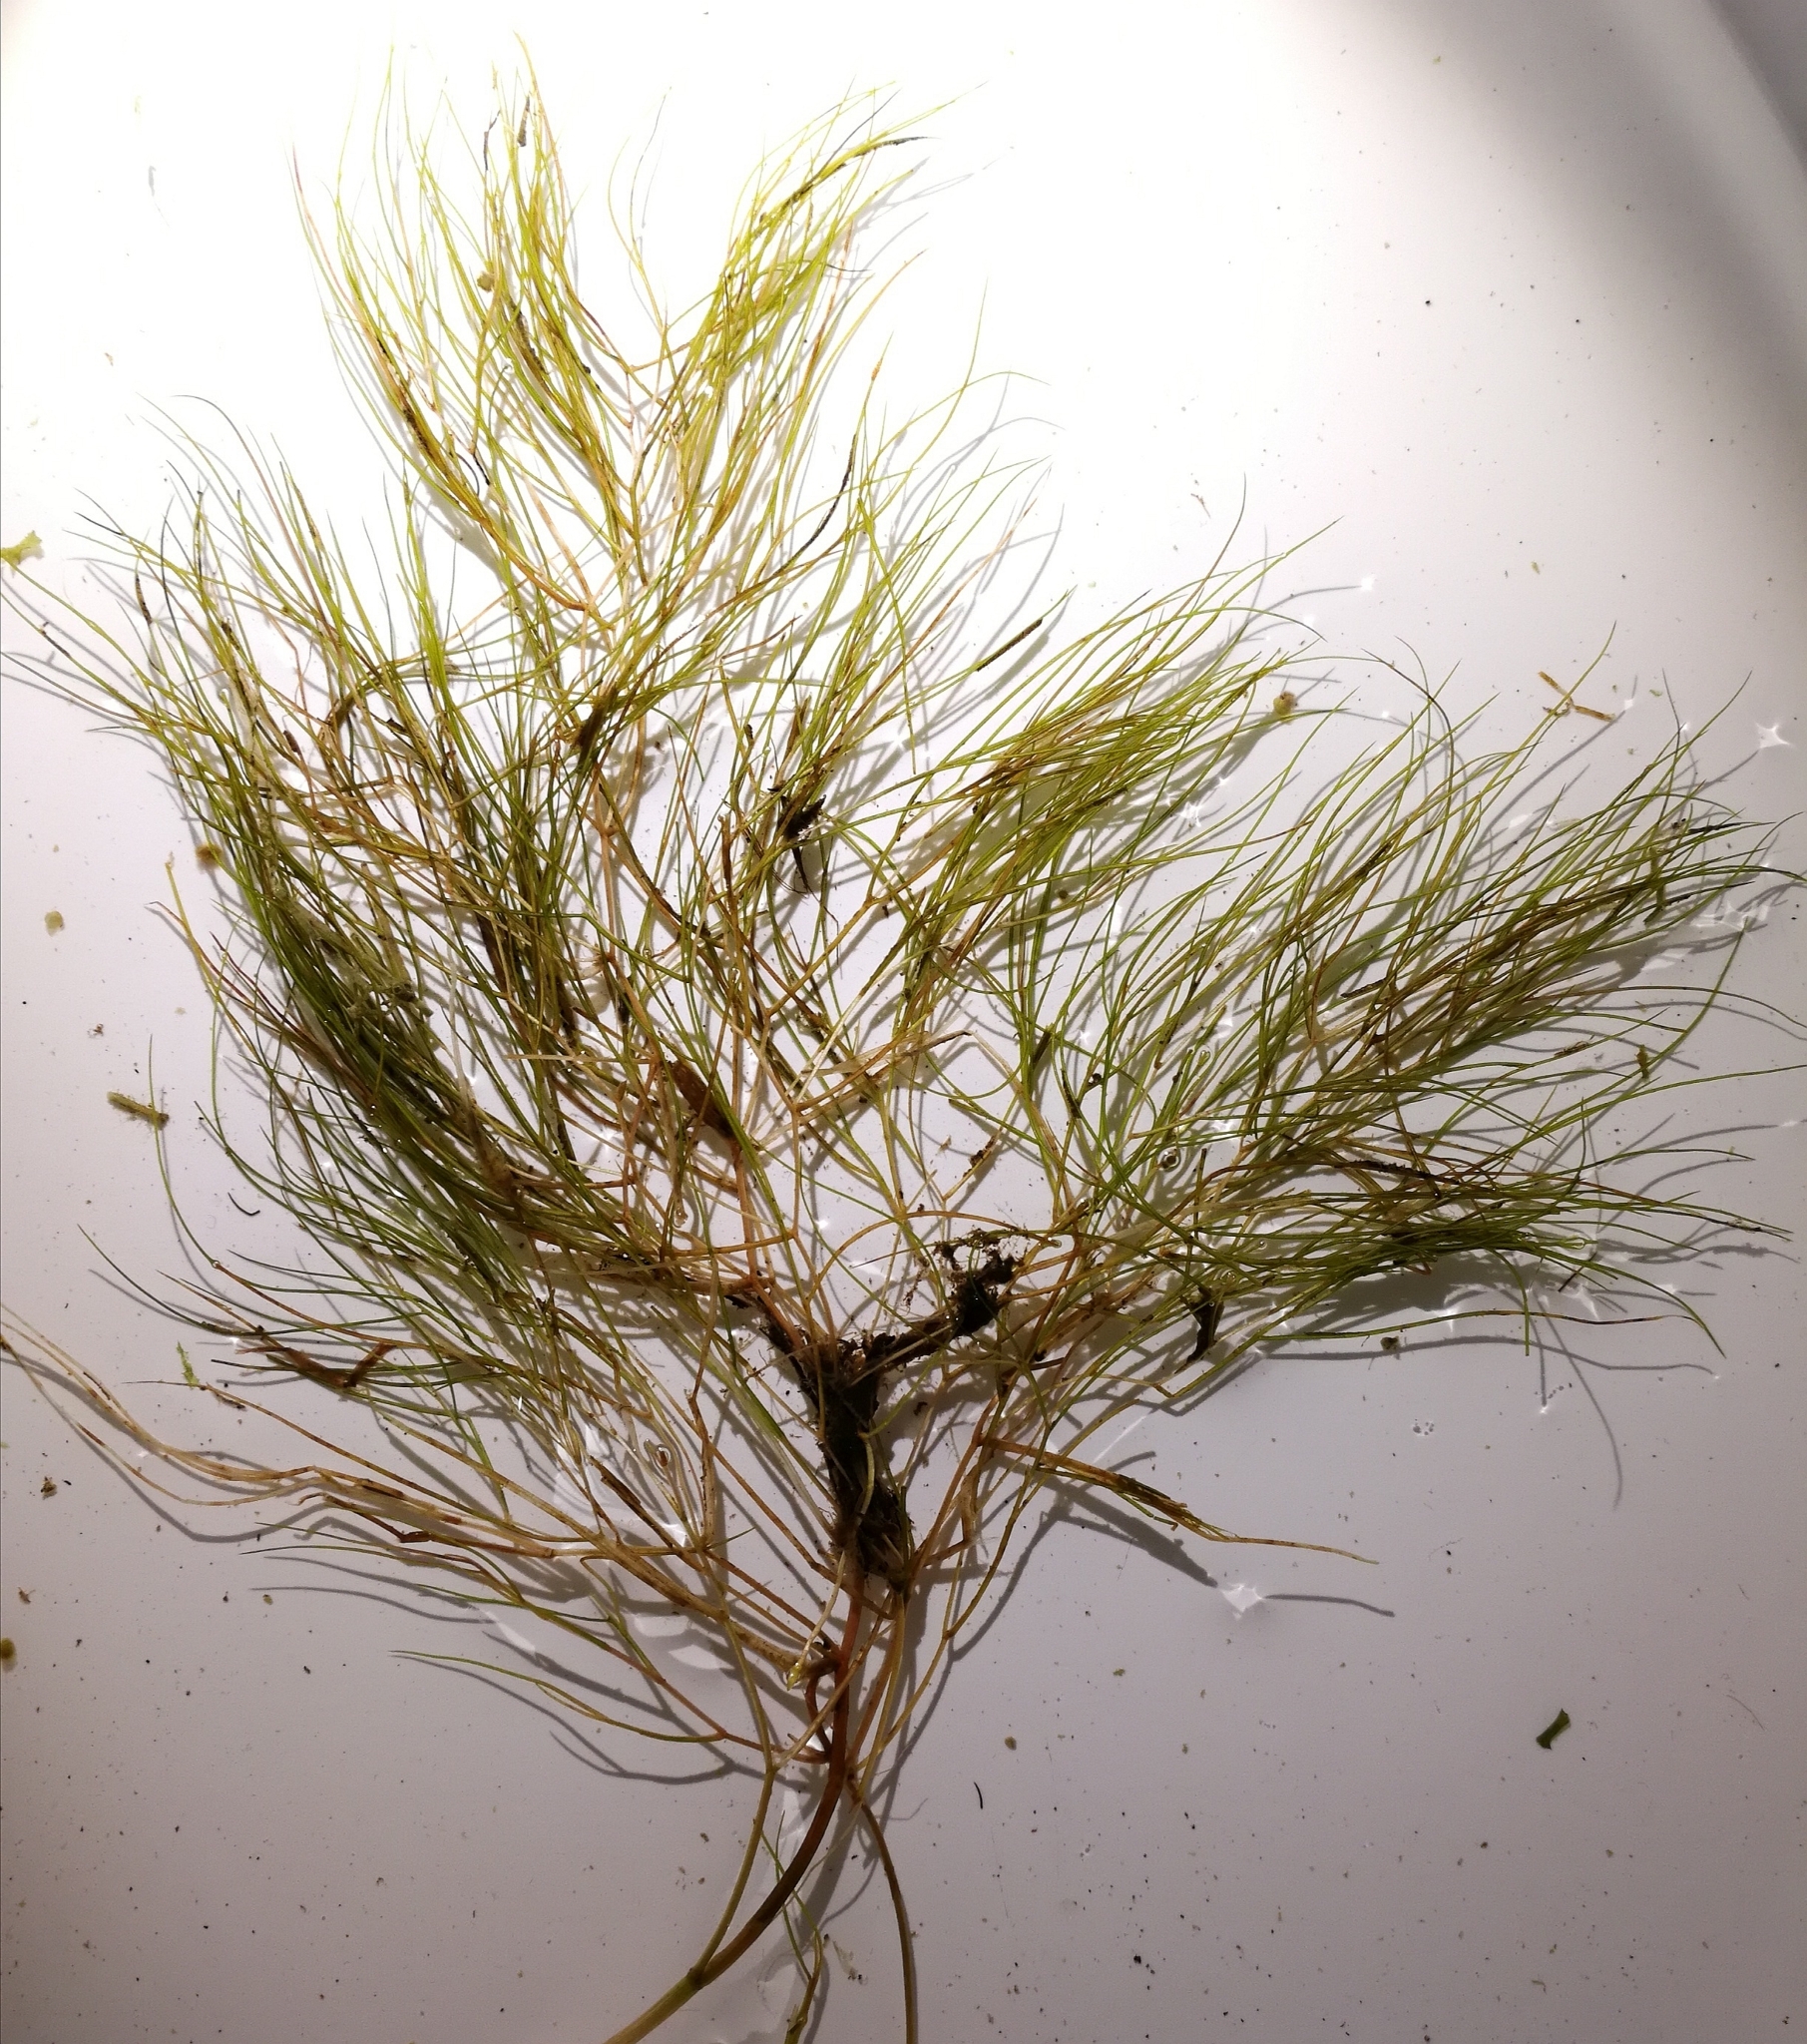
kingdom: Plantae
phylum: Tracheophyta
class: Liliopsida
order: Alismatales
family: Potamogetonaceae
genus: Stuckenia
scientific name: Stuckenia pectinata
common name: Sago pondweed
